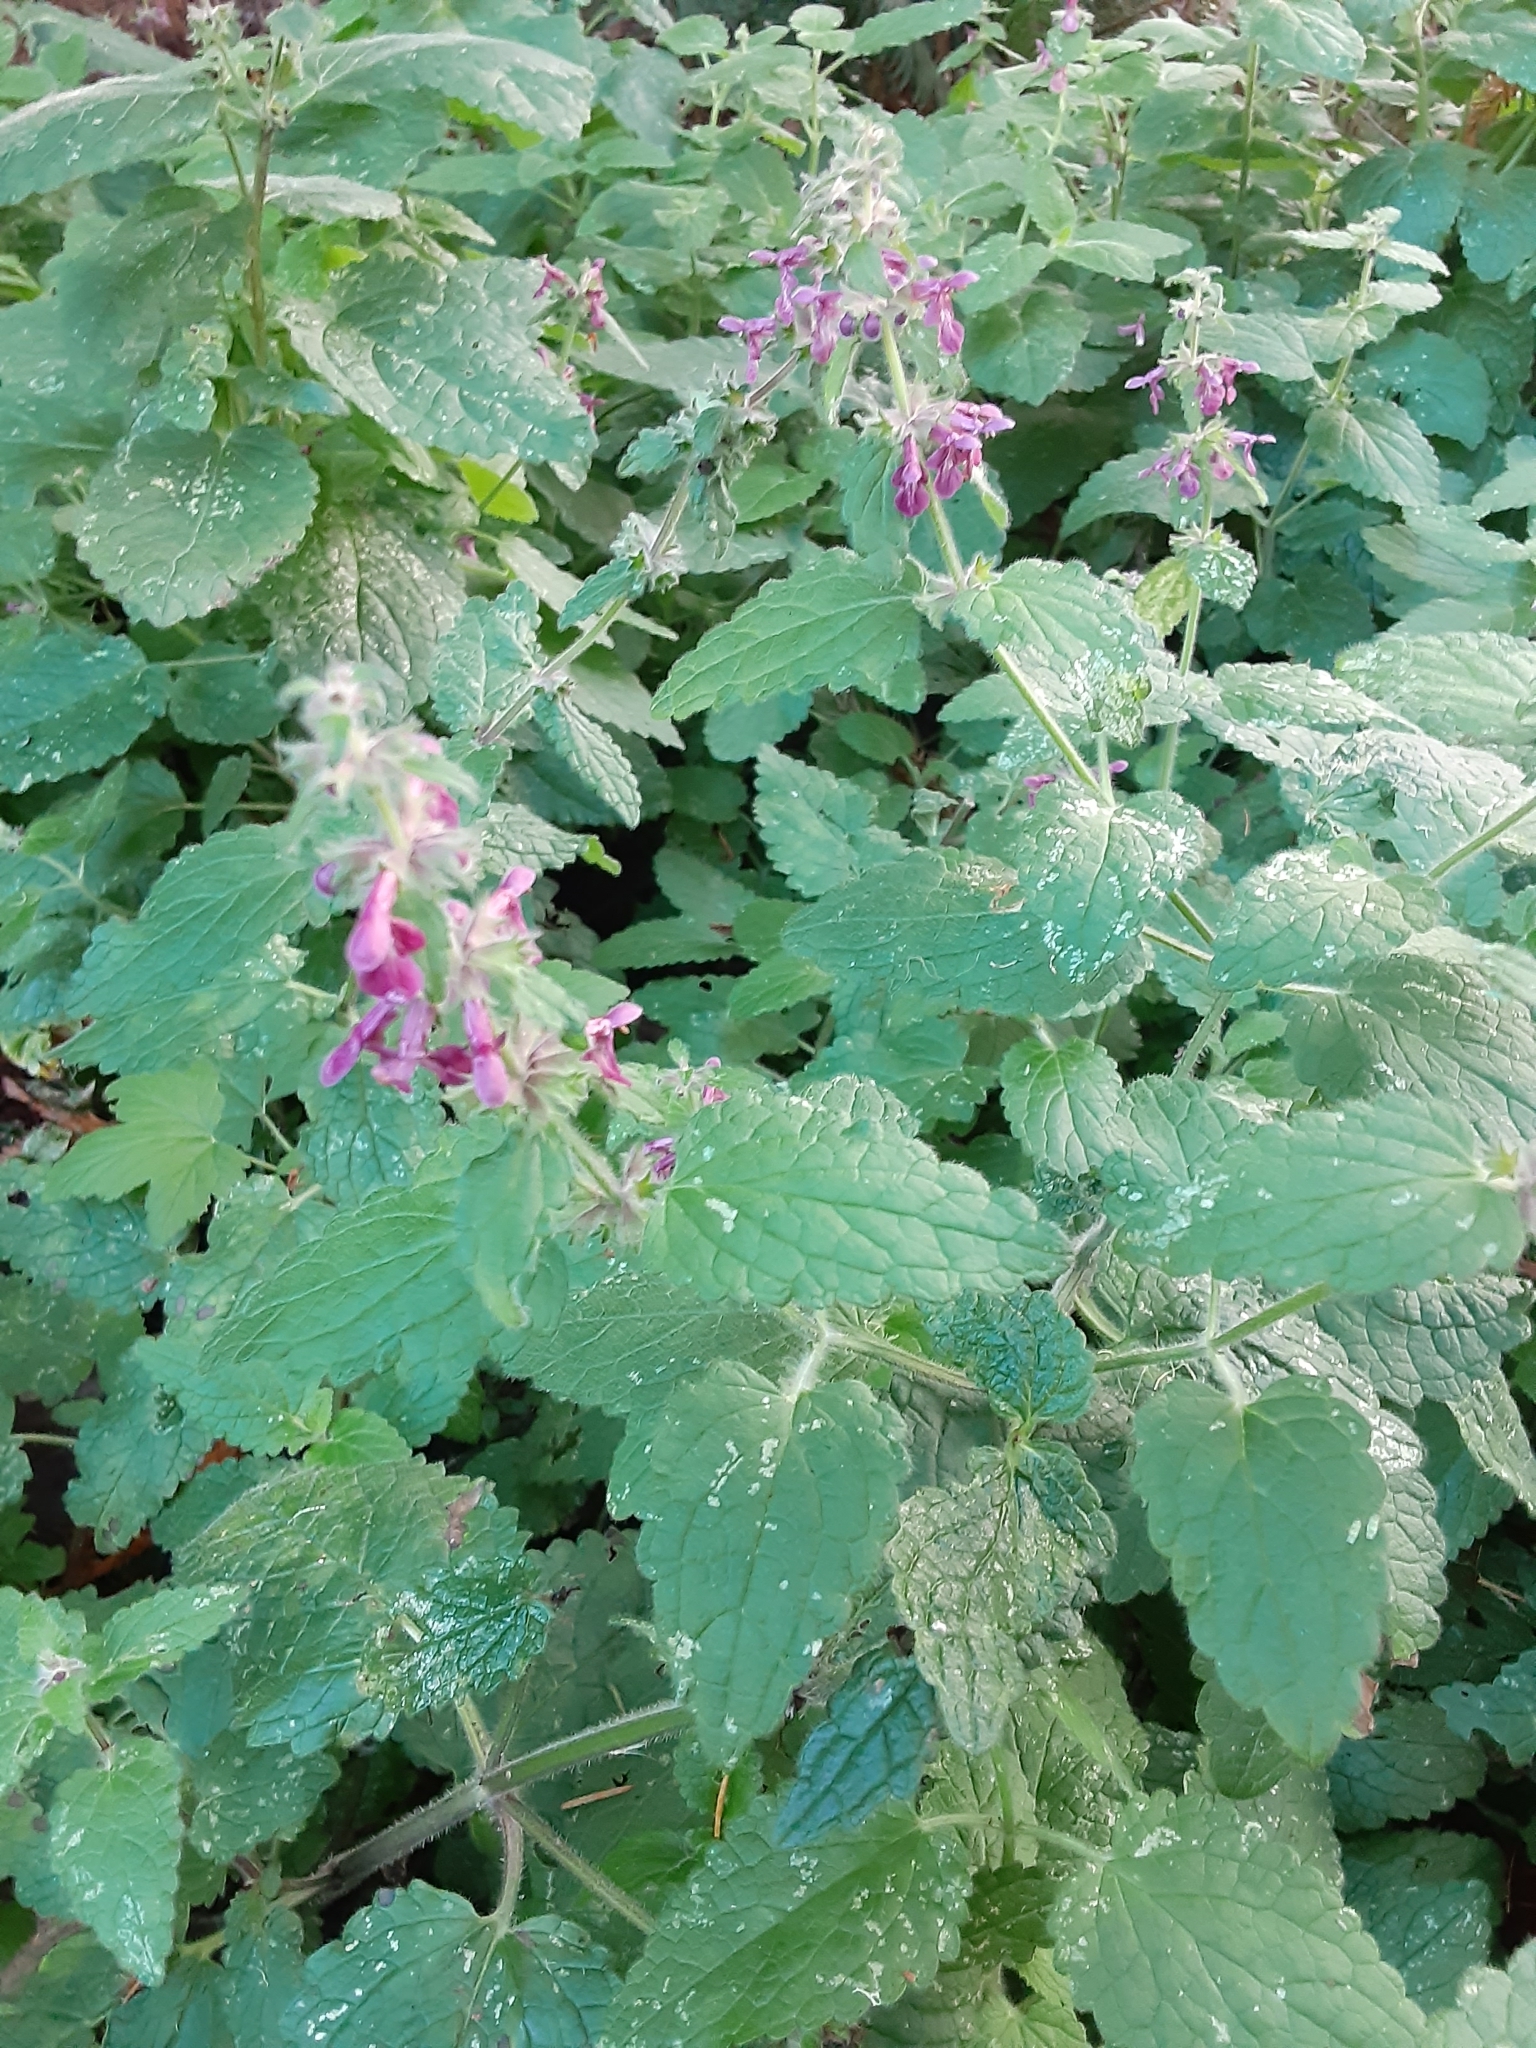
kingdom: Plantae
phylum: Tracheophyta
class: Magnoliopsida
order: Lamiales
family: Lamiaceae
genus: Stachys
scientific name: Stachys rigida
